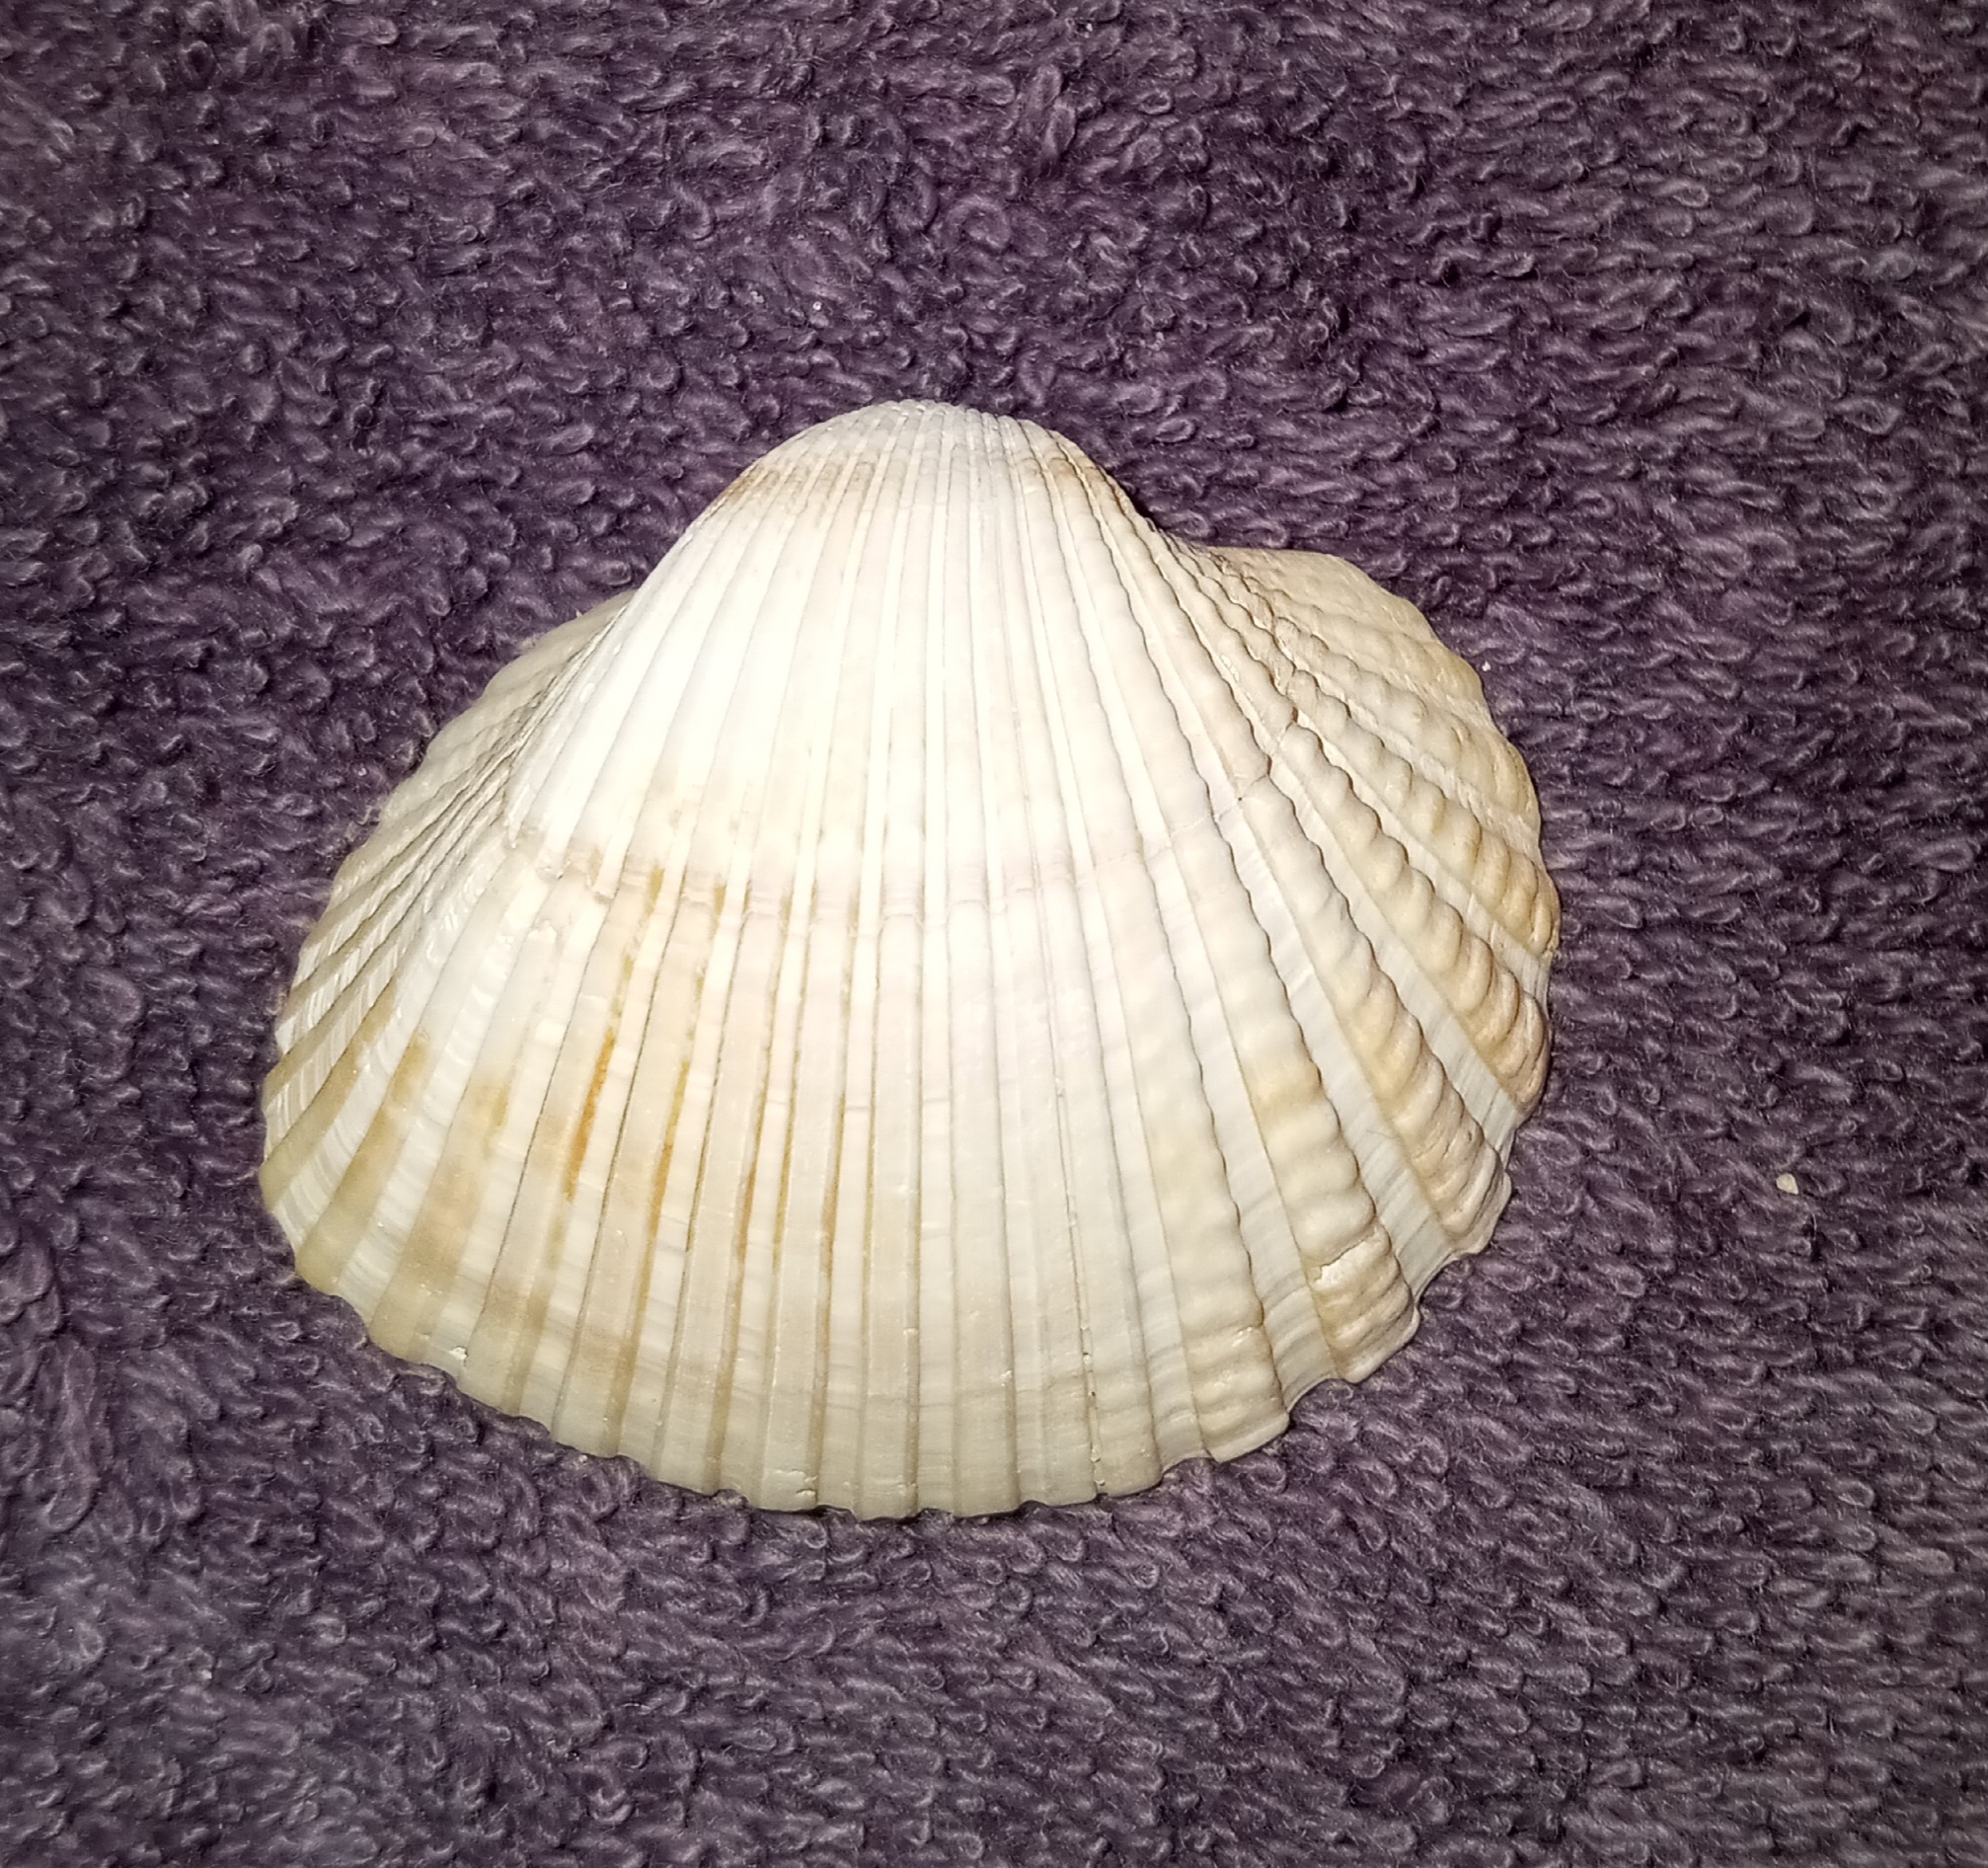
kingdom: Animalia
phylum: Mollusca
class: Bivalvia
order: Arcida
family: Arcidae
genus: Anadara
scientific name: Anadara brasiliana
